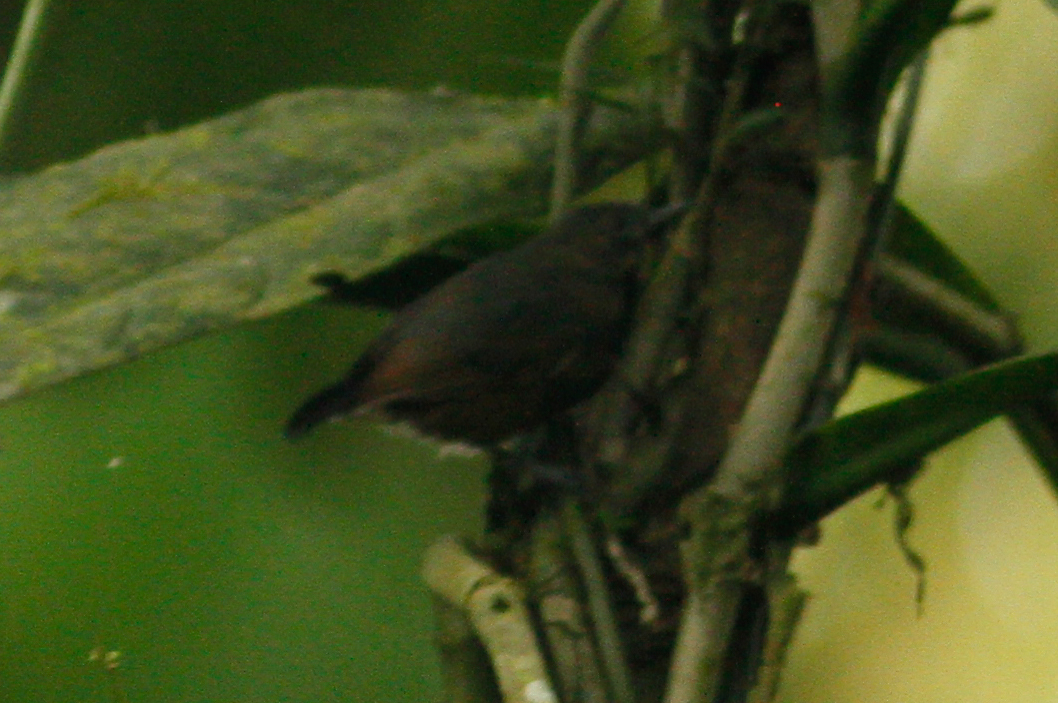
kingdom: Animalia
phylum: Chordata
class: Aves
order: Passeriformes
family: Thamnophilidae
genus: Myrmeciza
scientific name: Myrmeciza exsul
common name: Chestnut-backed antbird
